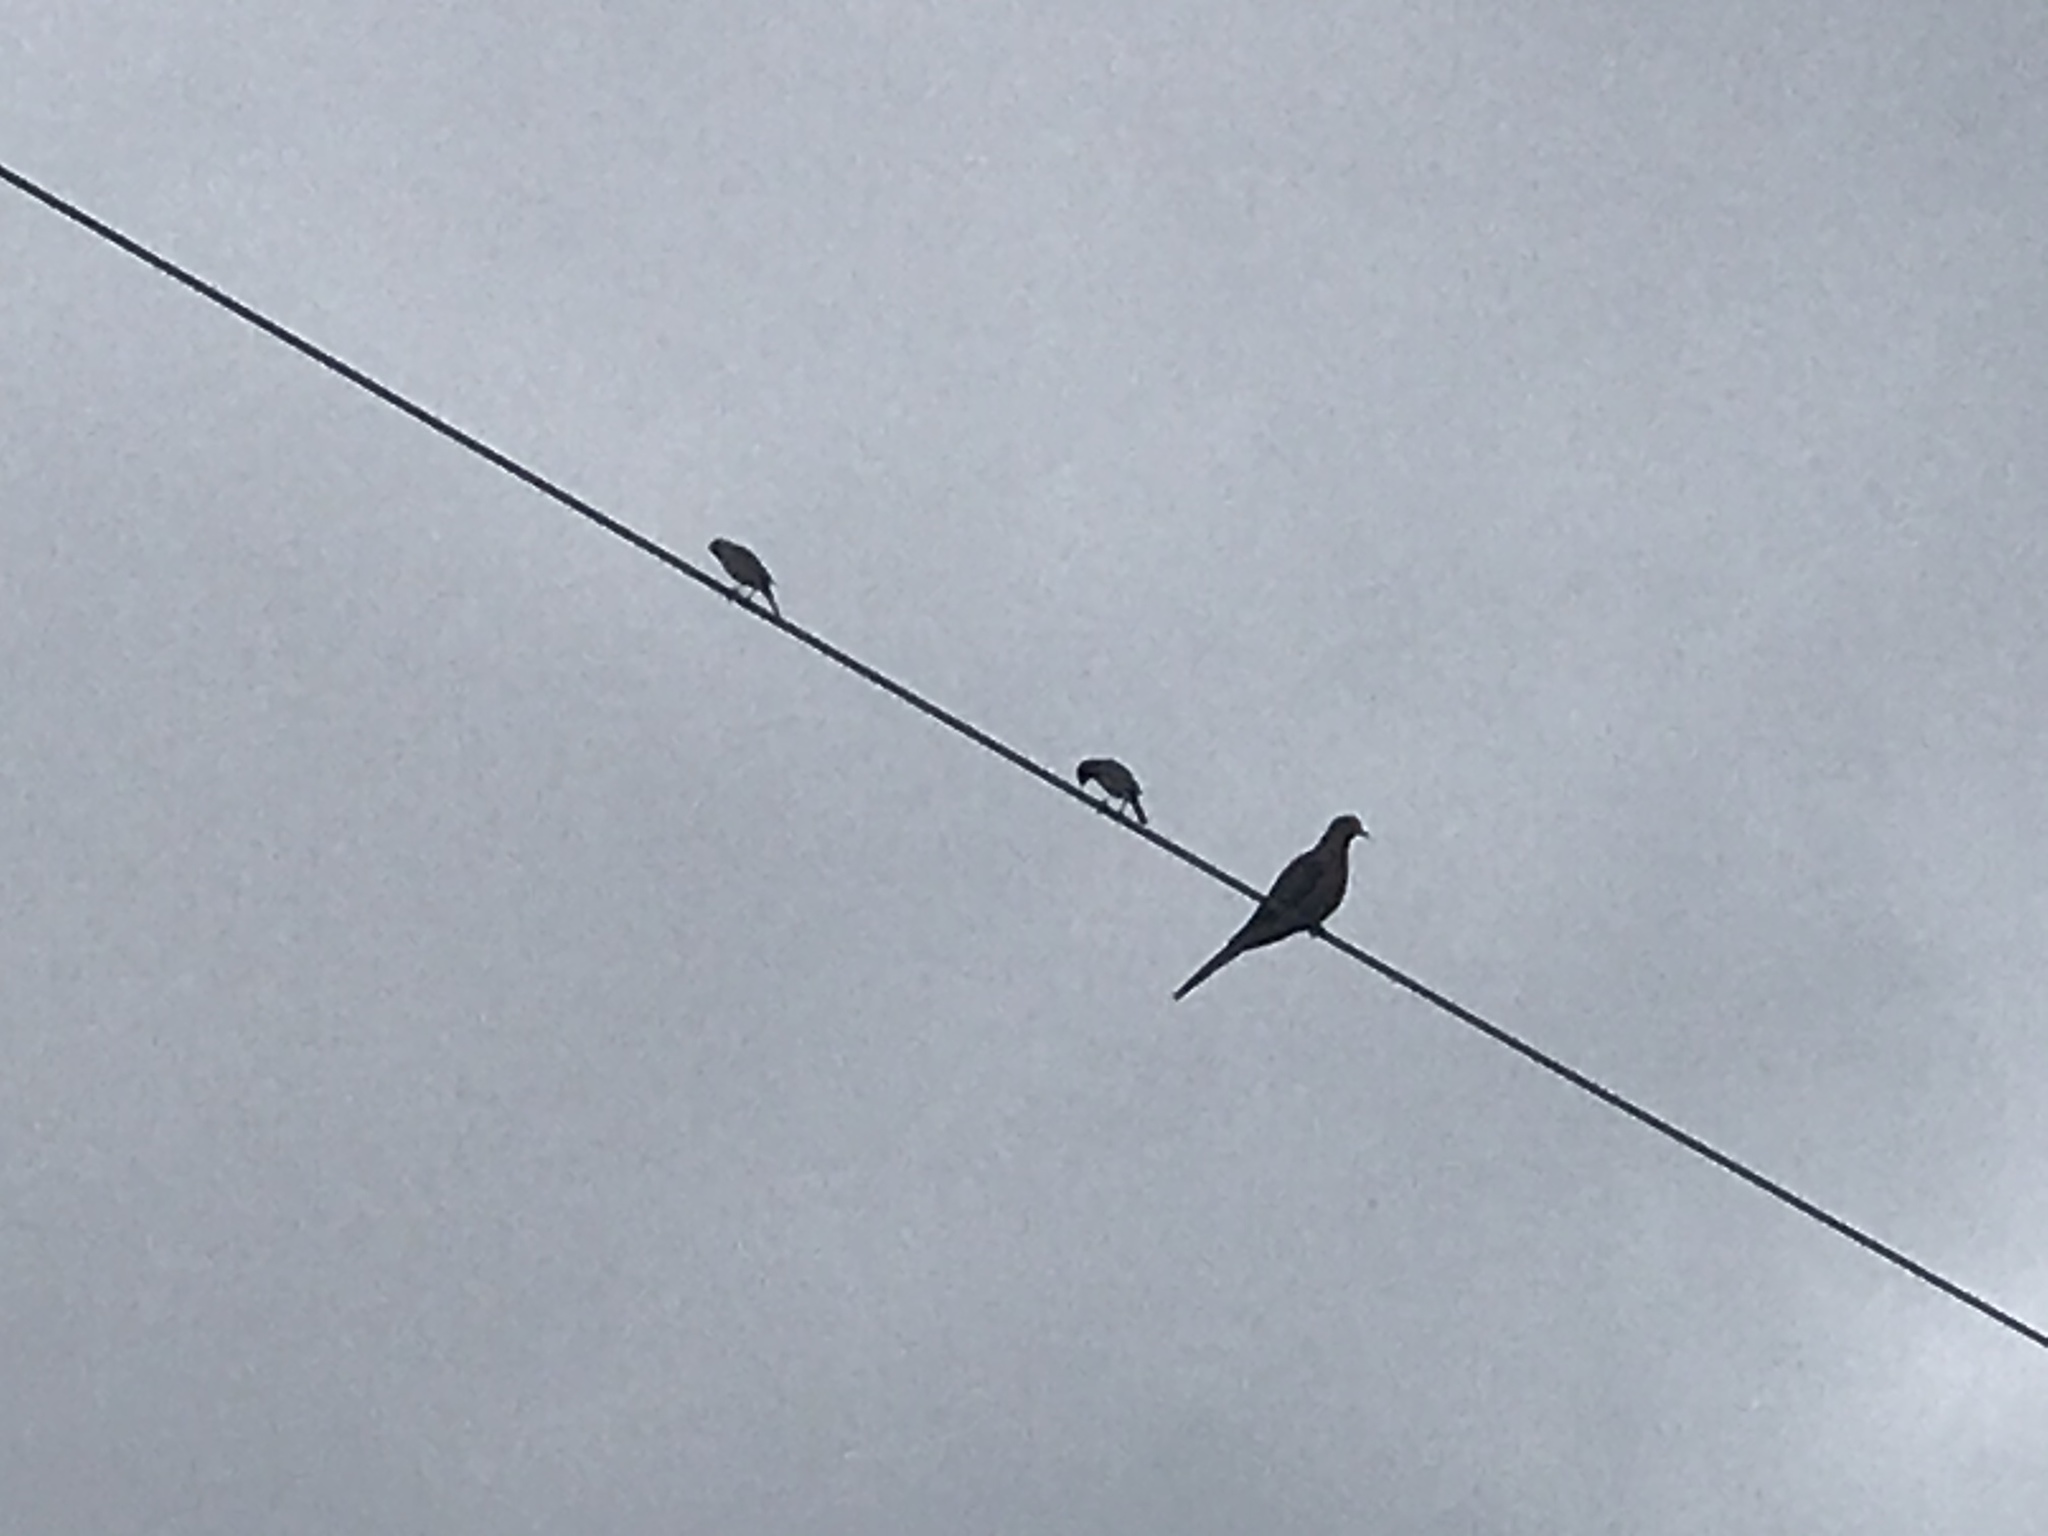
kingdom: Animalia
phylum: Chordata
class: Aves
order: Columbiformes
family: Columbidae
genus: Zenaida
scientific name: Zenaida macroura
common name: Mourning dove
